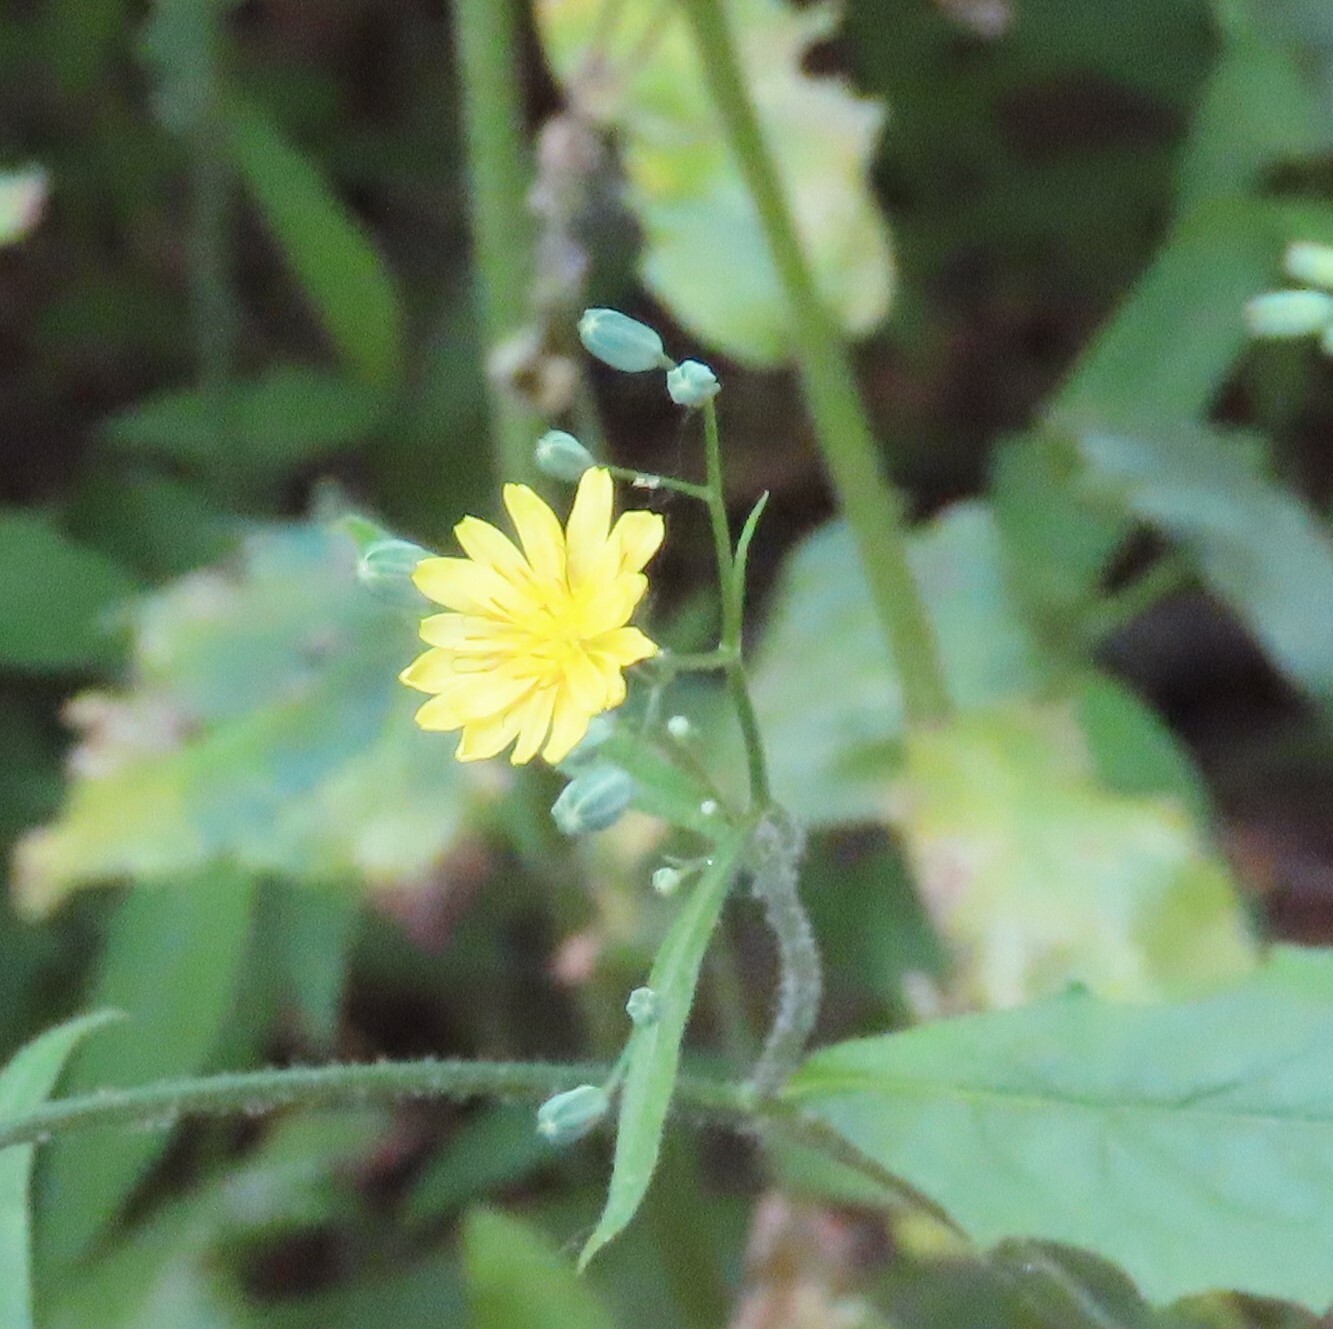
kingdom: Plantae
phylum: Tracheophyta
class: Magnoliopsida
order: Asterales
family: Asteraceae
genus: Lapsana
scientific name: Lapsana communis
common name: Nipplewort
